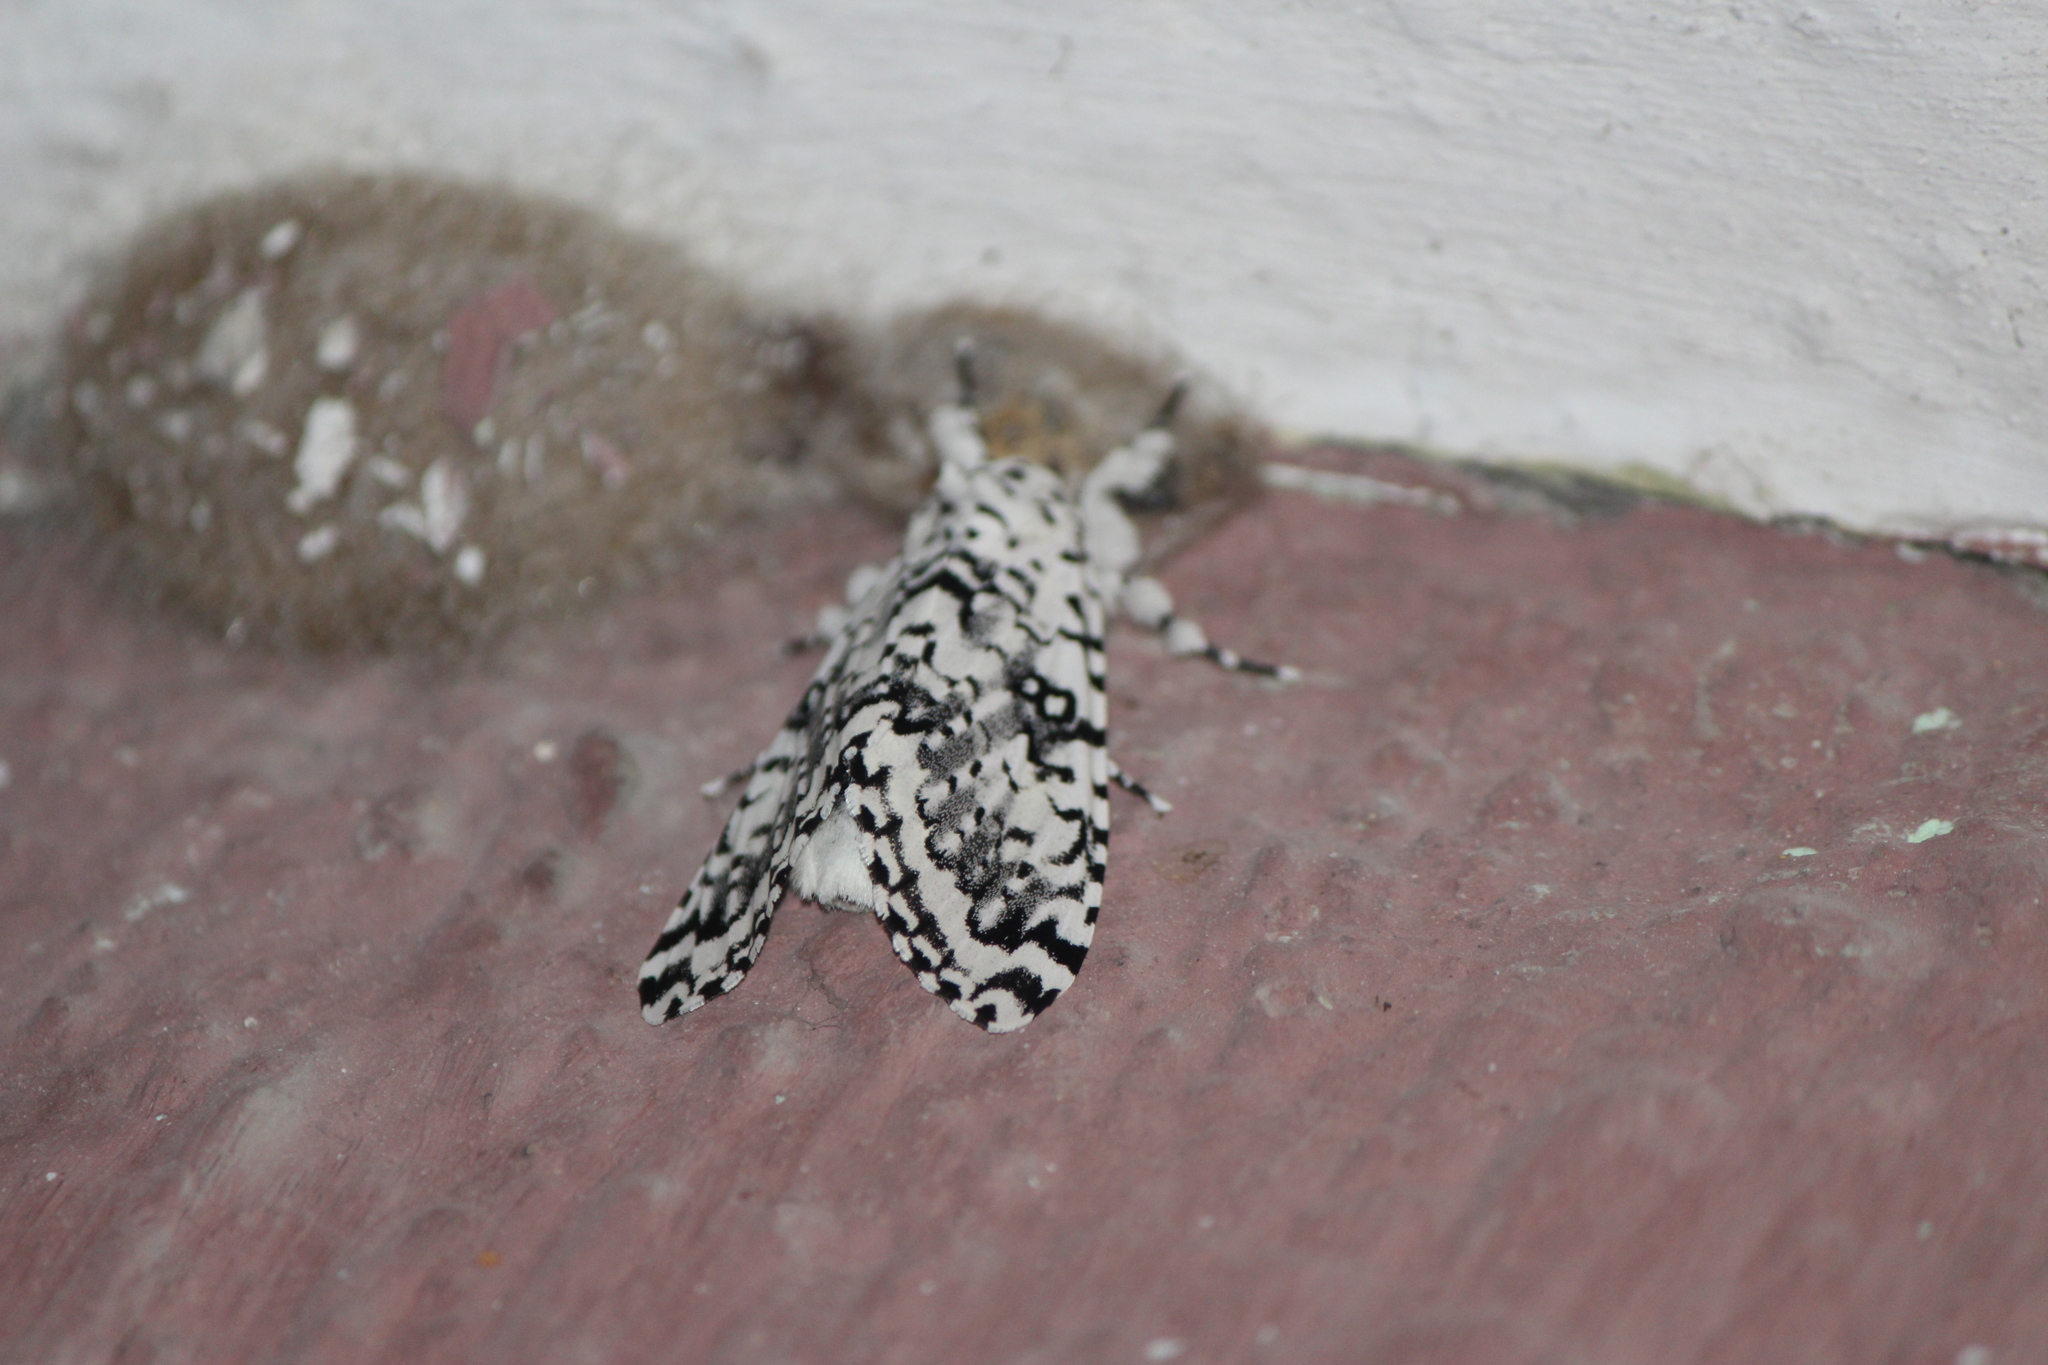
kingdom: Animalia
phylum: Arthropoda
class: Insecta
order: Lepidoptera
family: Noctuidae
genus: Lichnoptera
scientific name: Lichnoptera decora
